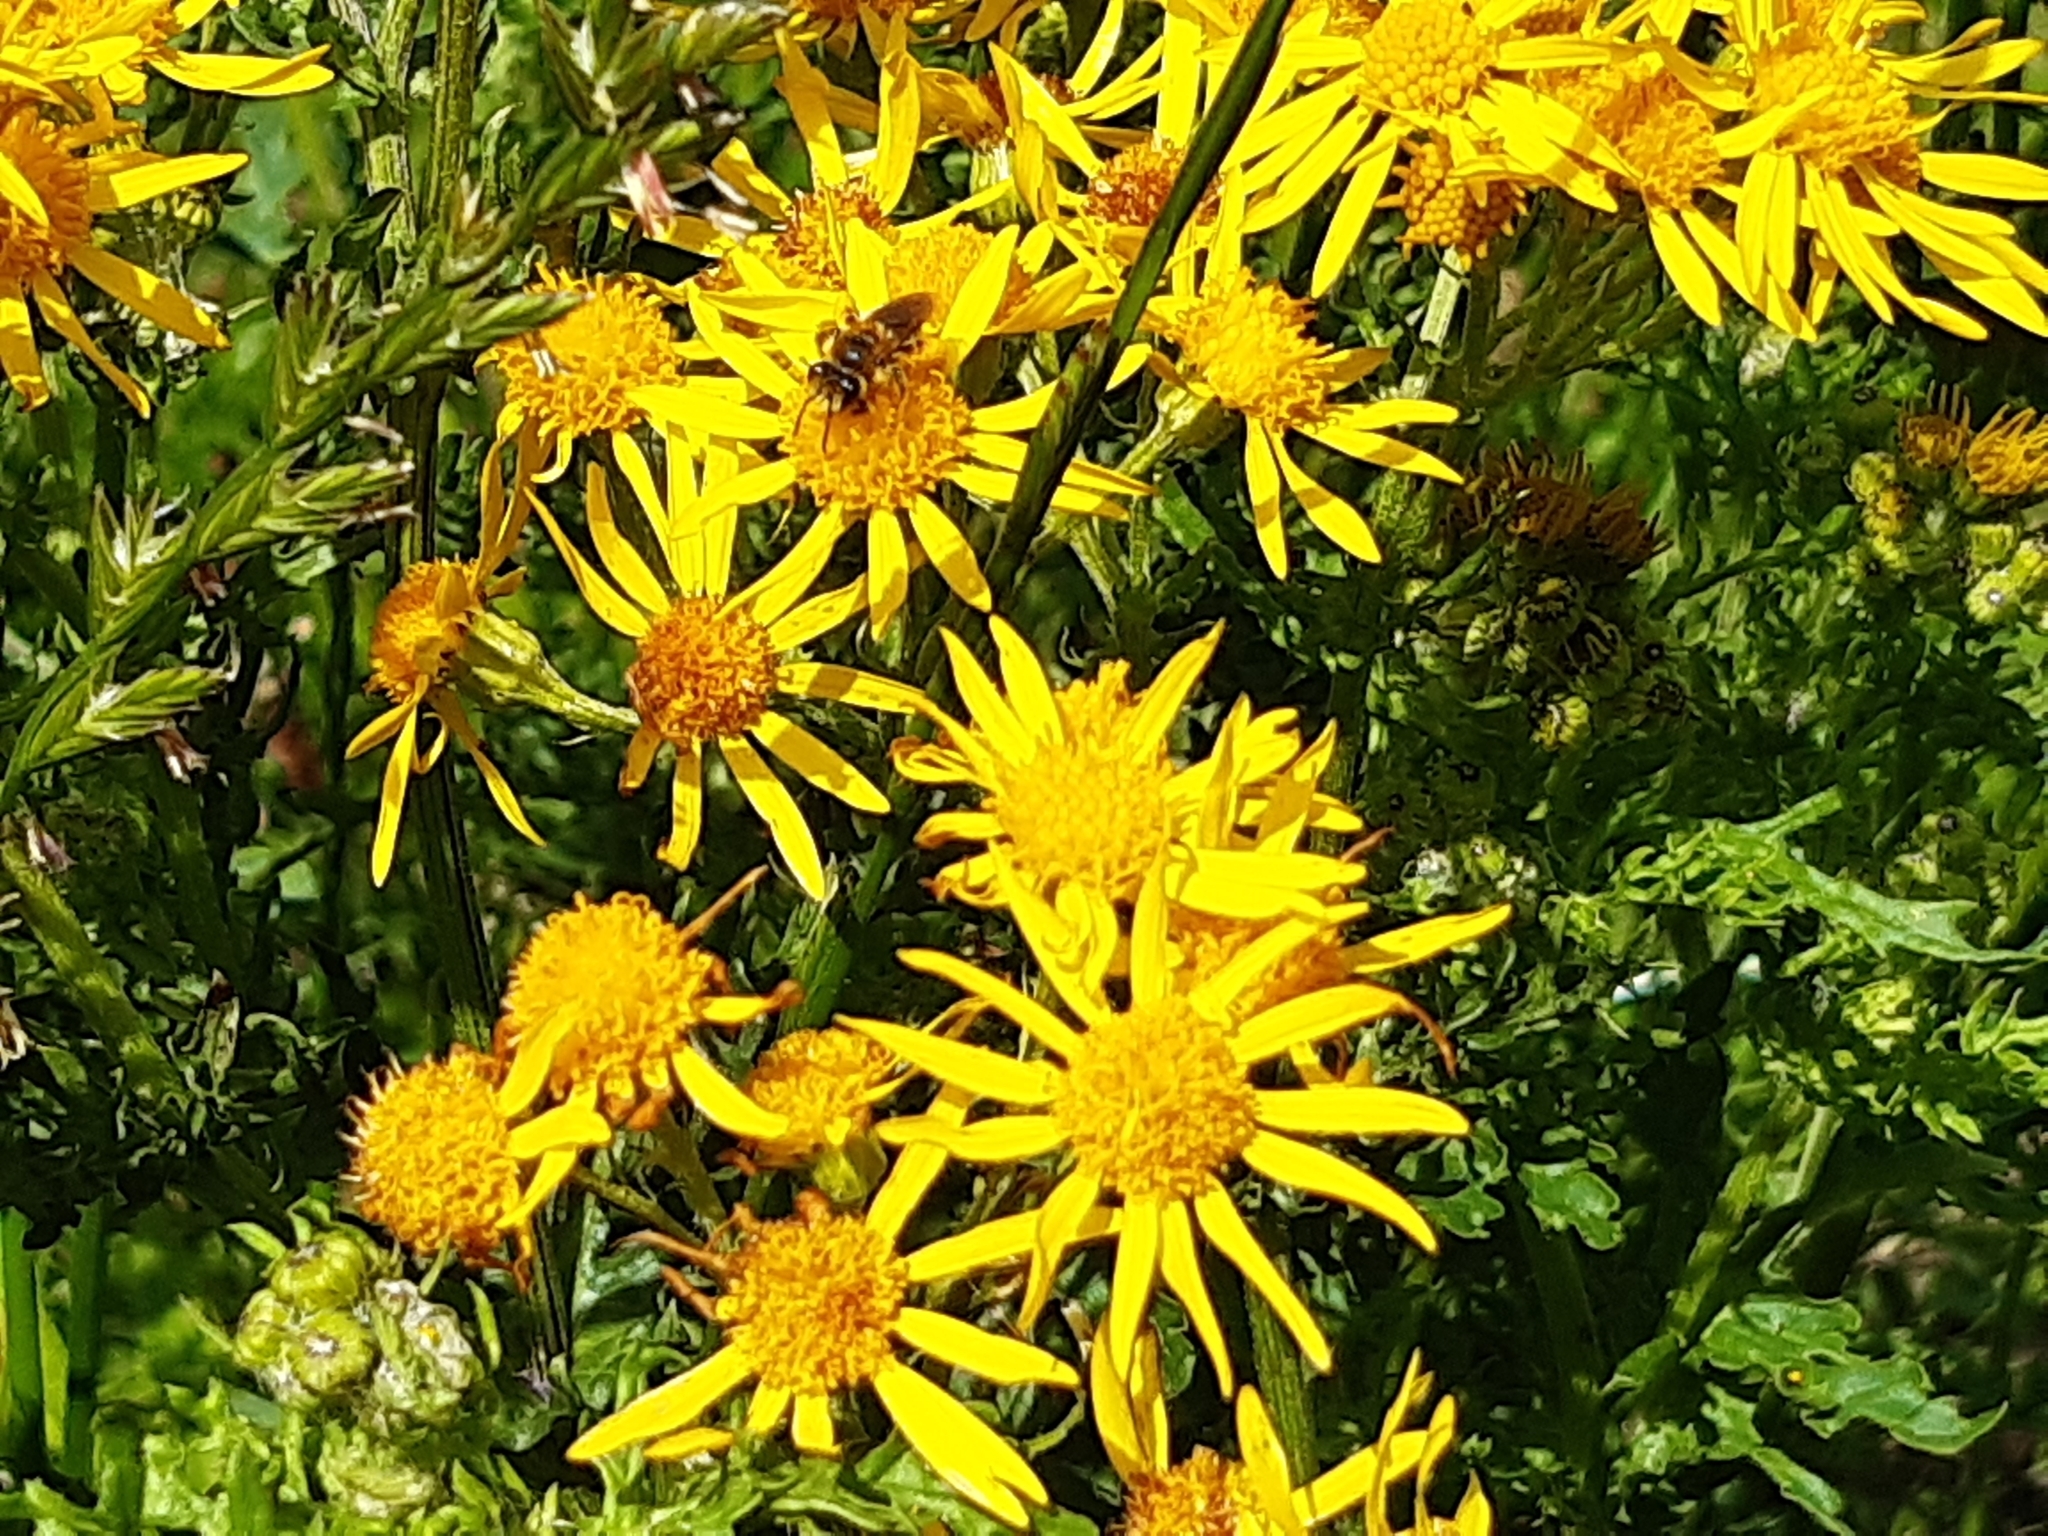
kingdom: Animalia
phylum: Arthropoda
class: Insecta
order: Hymenoptera
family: Colletidae
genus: Leioproctus
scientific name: Leioproctus fulvescens
